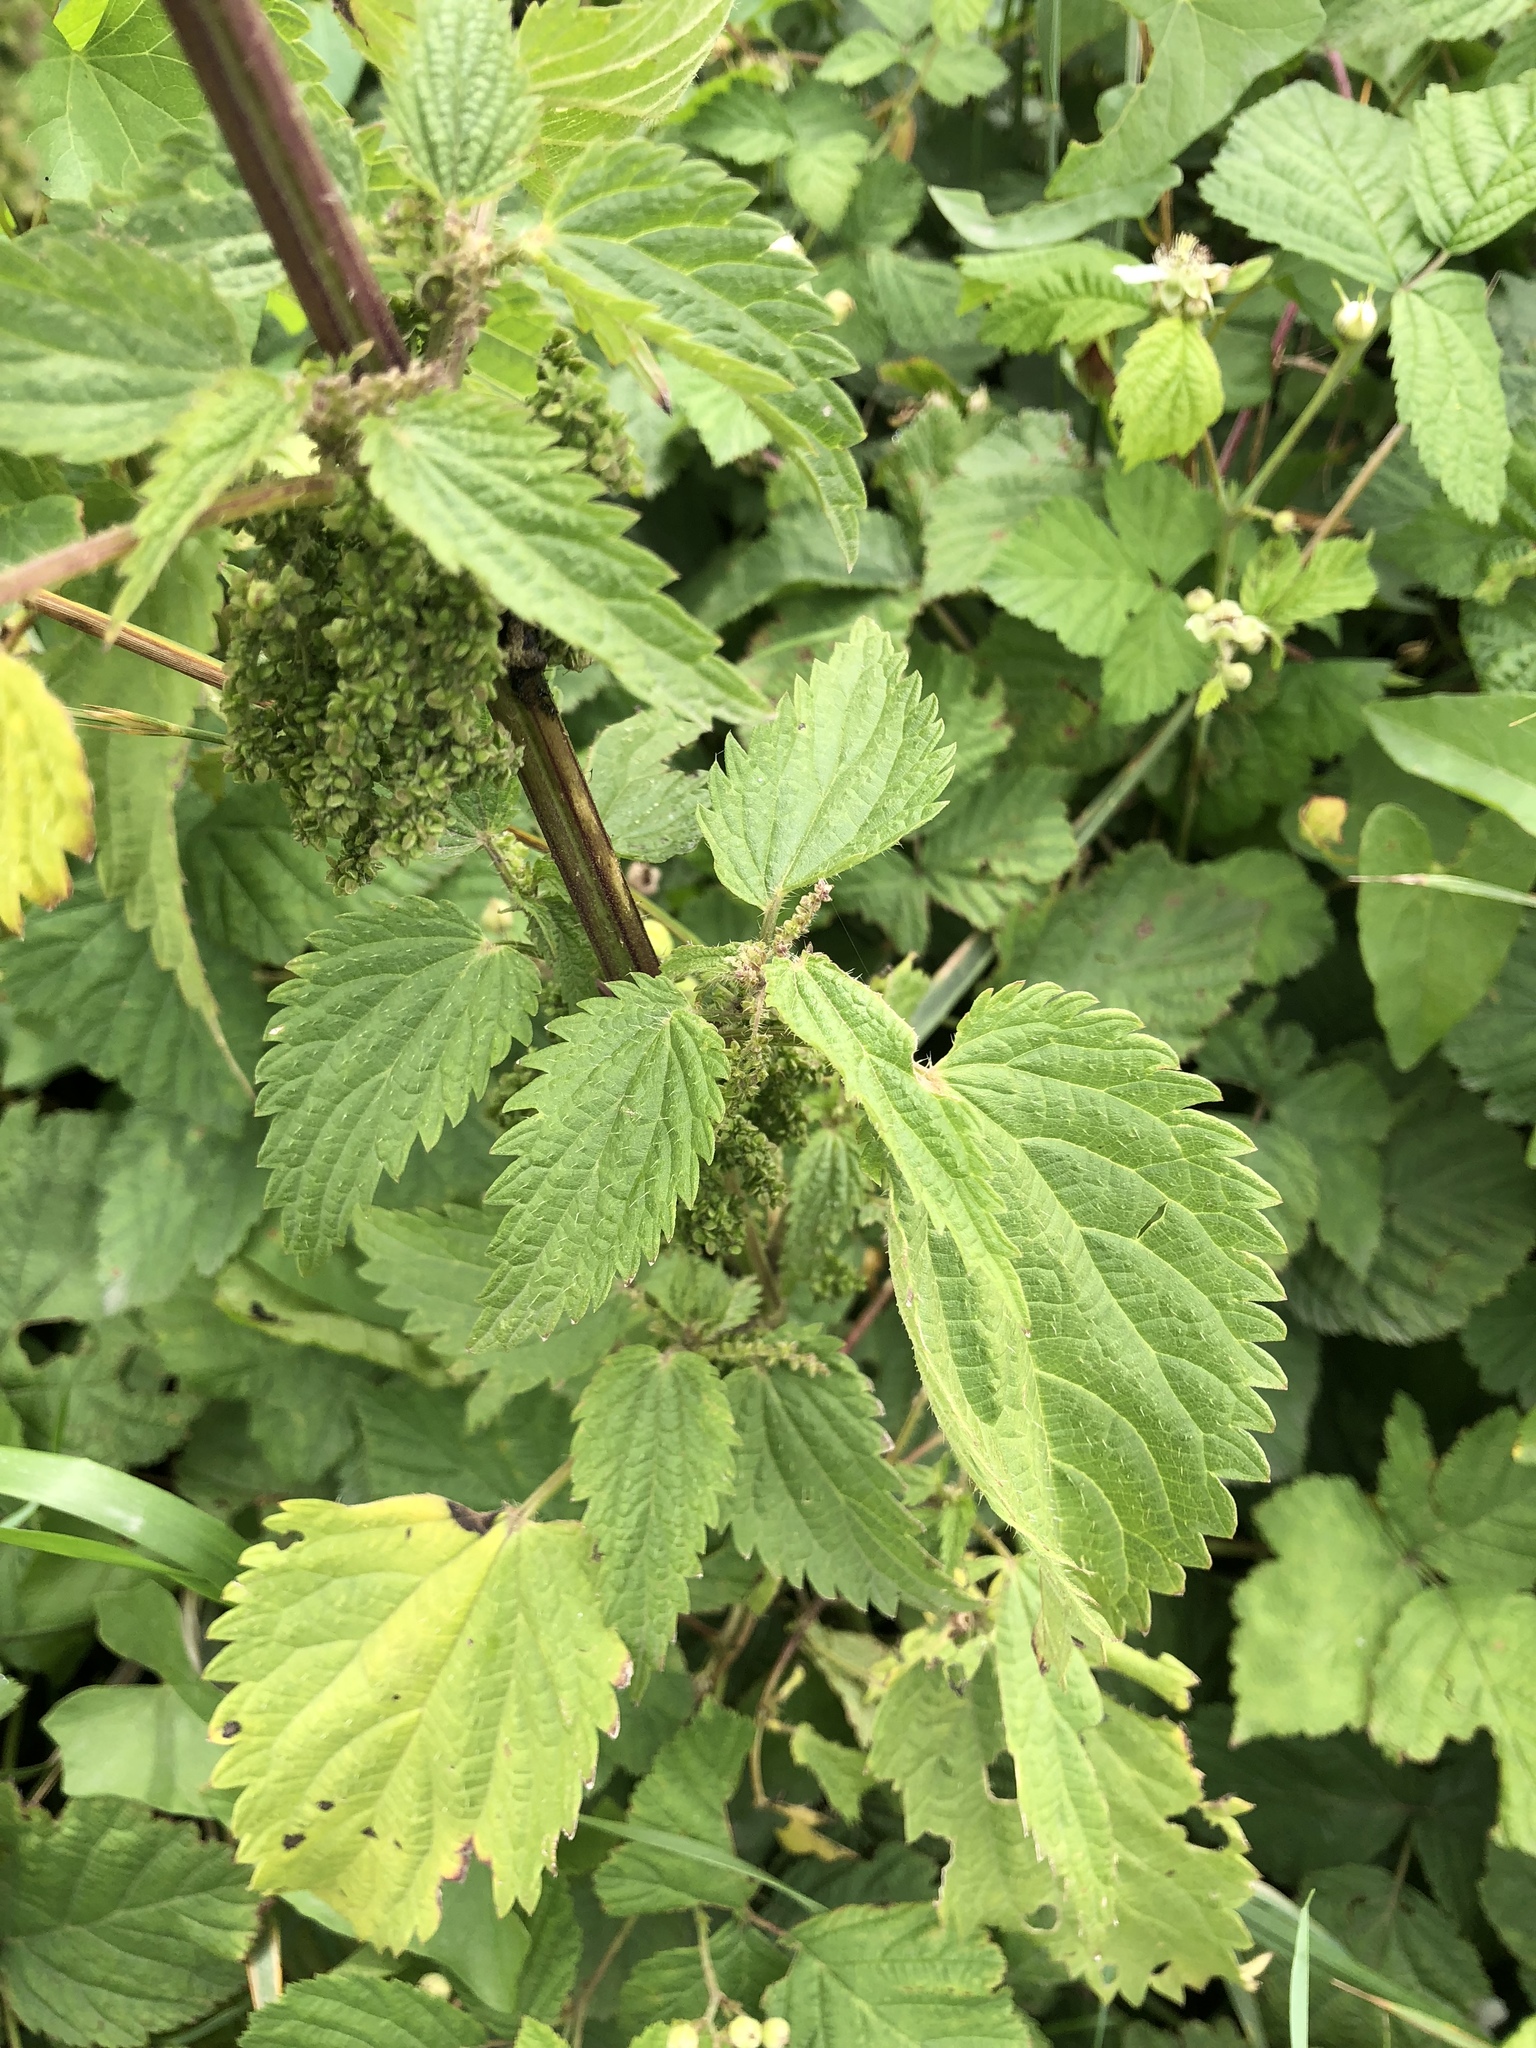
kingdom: Plantae
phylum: Tracheophyta
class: Magnoliopsida
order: Rosales
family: Urticaceae
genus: Urtica
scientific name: Urtica dioica
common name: Common nettle
